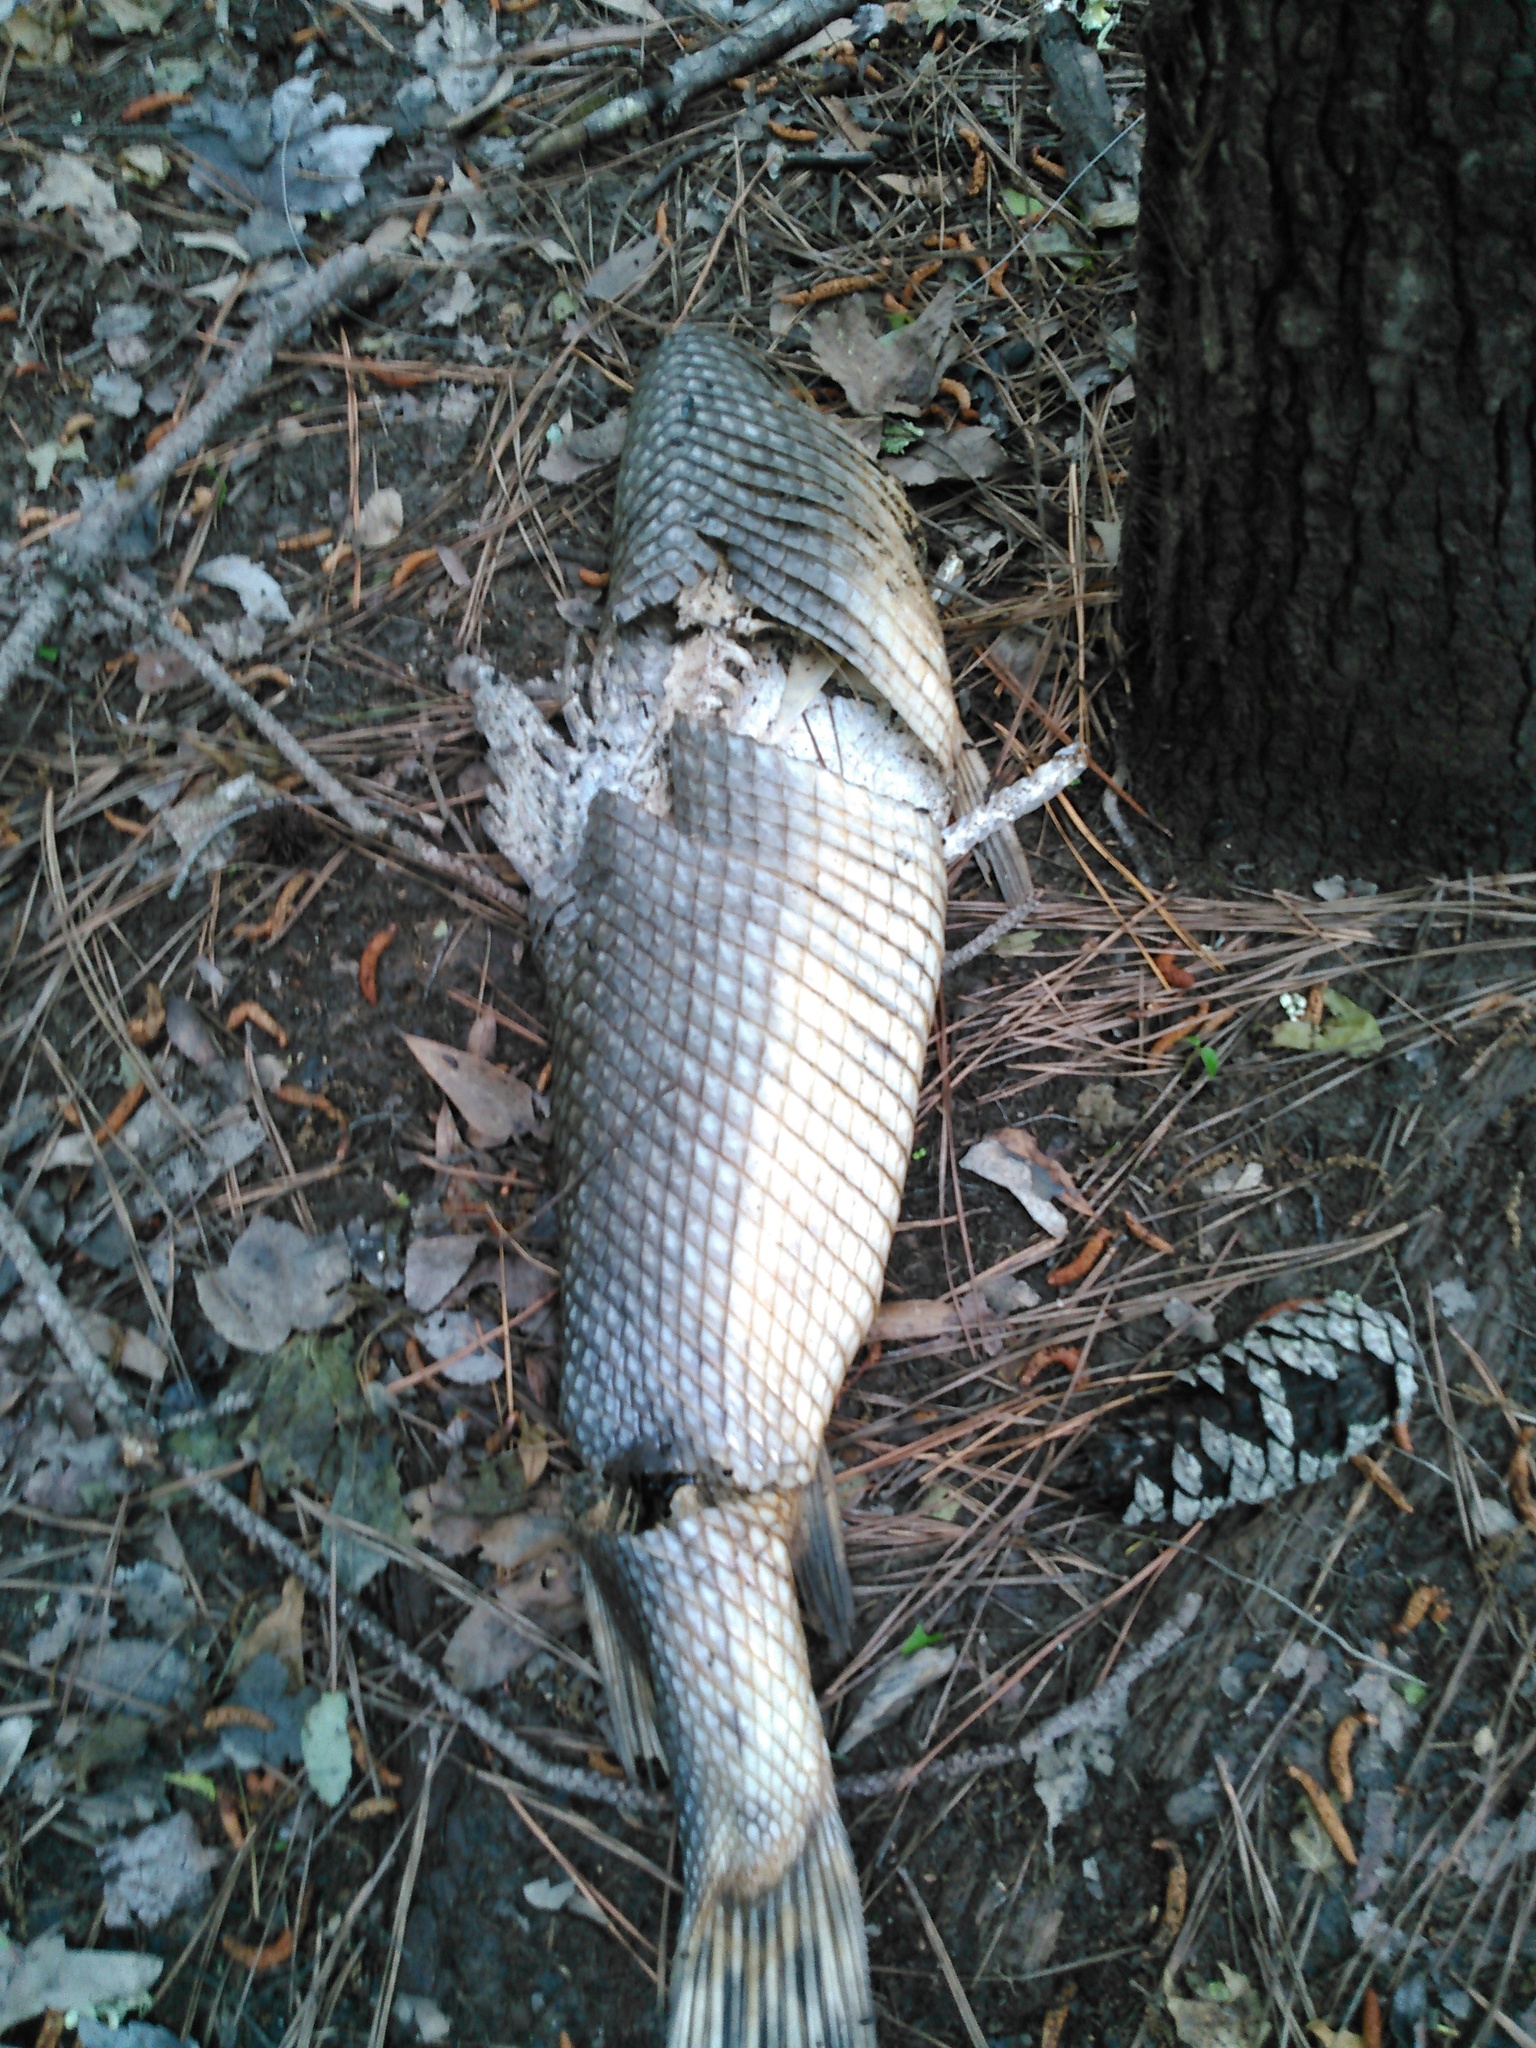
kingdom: Animalia
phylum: Chordata
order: Lepisosteiformes
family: Lepisosteidae
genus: Lepisosteus
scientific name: Lepisosteus osseus
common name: Longnose gar
